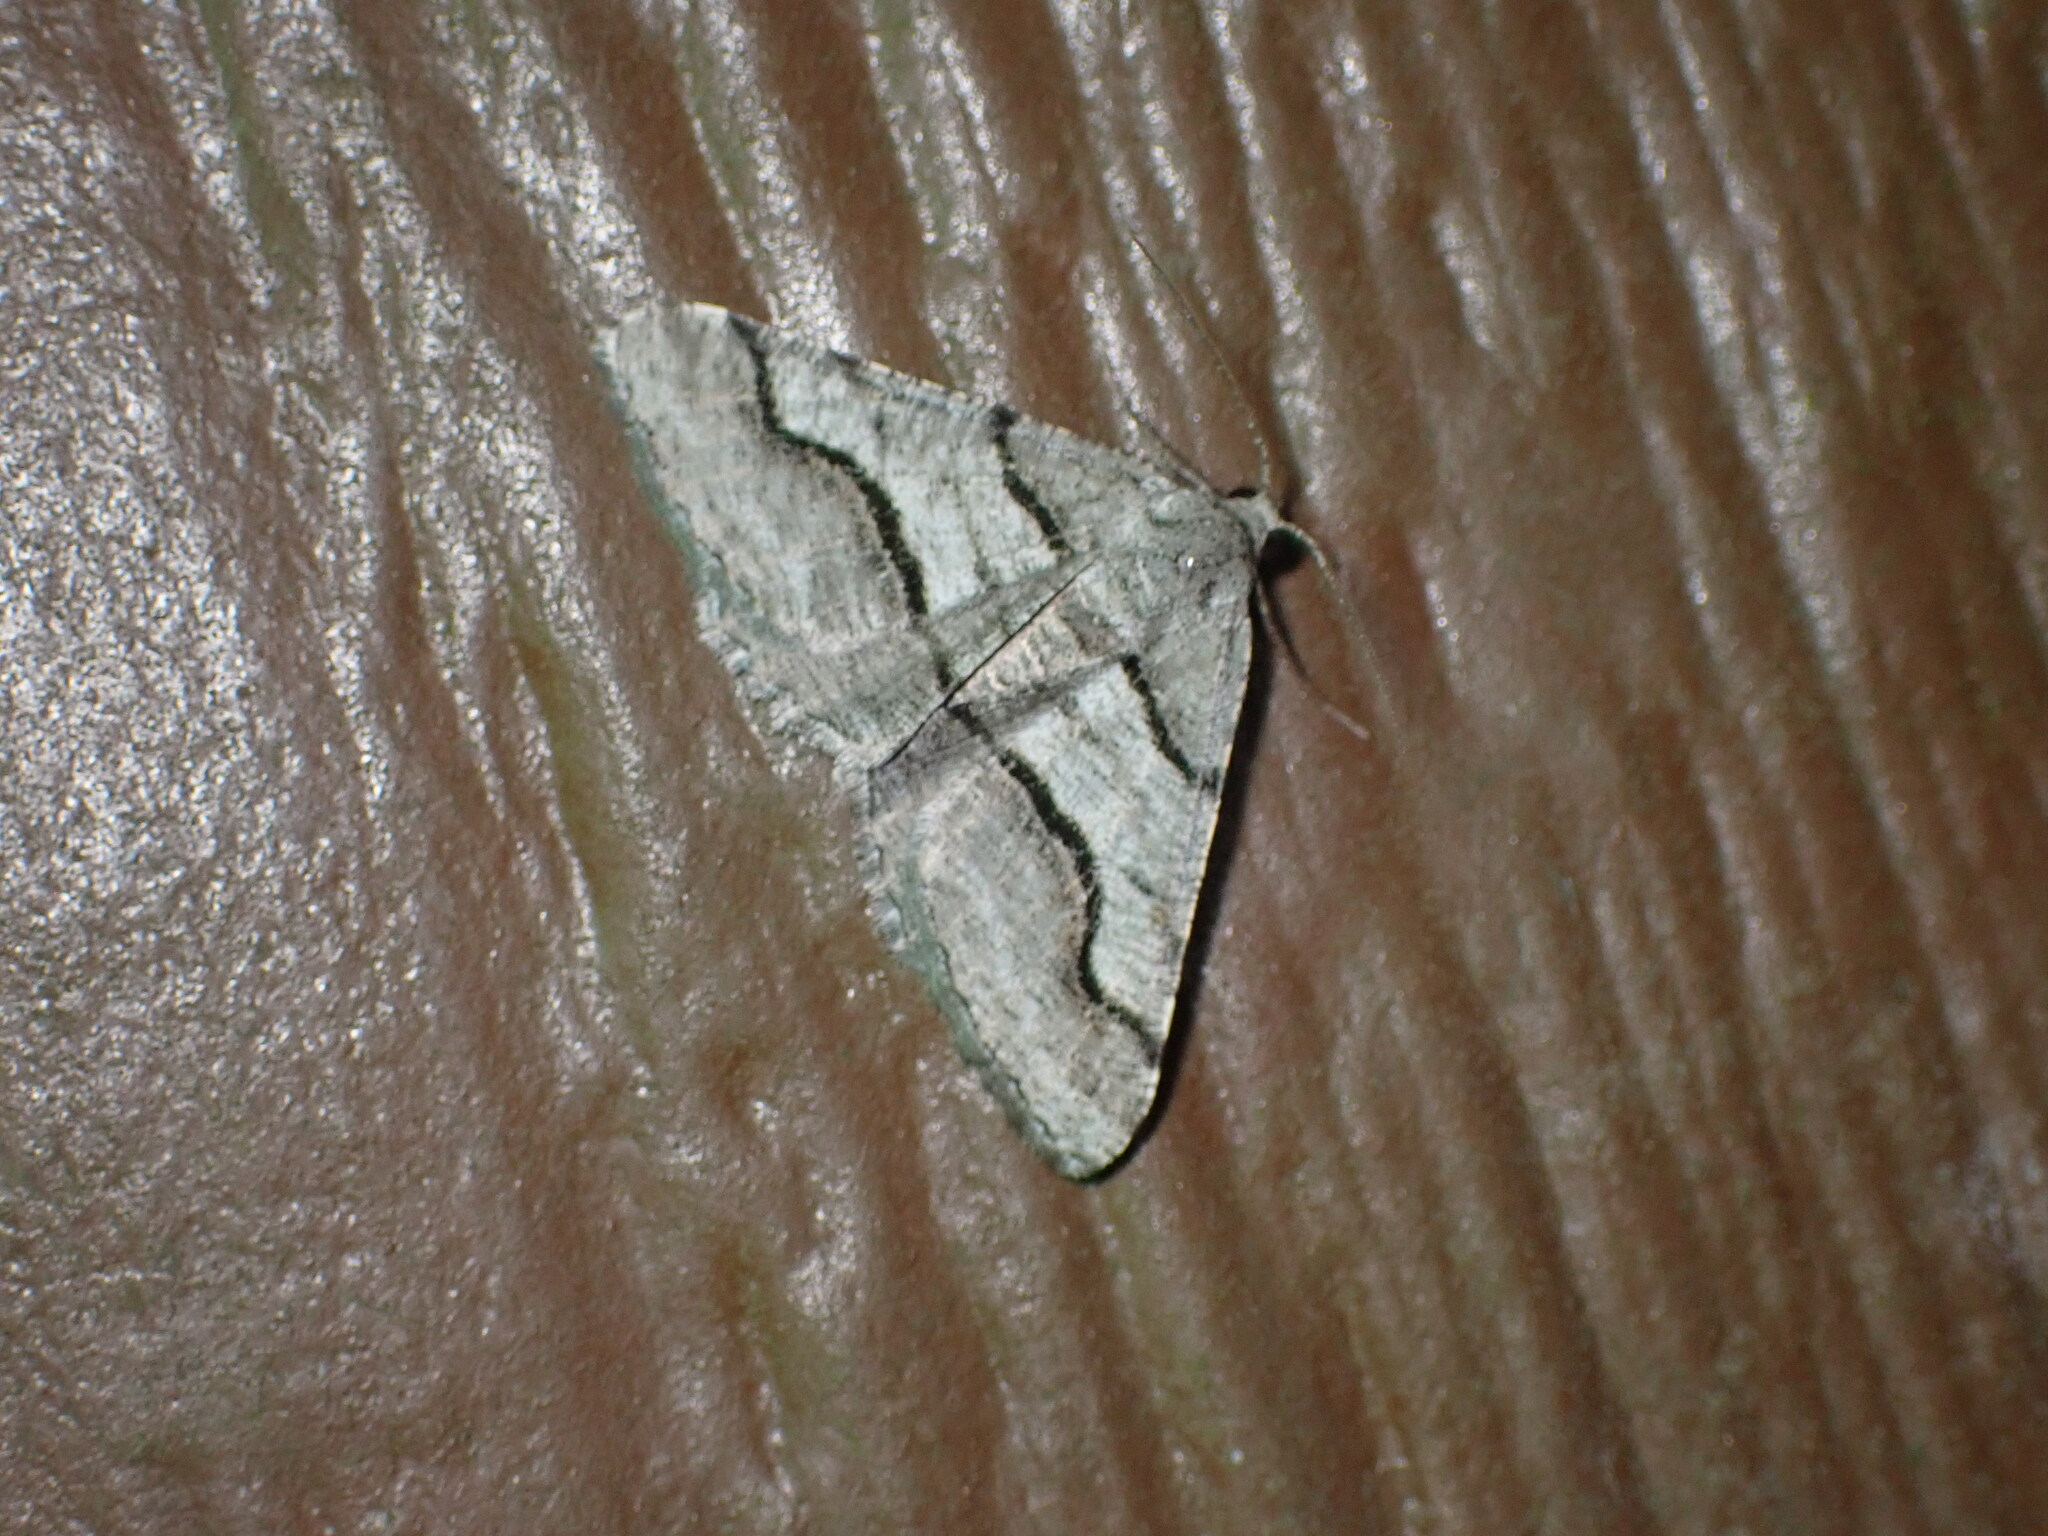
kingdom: Animalia
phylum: Arthropoda
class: Insecta
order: Lepidoptera
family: Geometridae
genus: Digrammia
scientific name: Digrammia continuata
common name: Curve-lined angle
